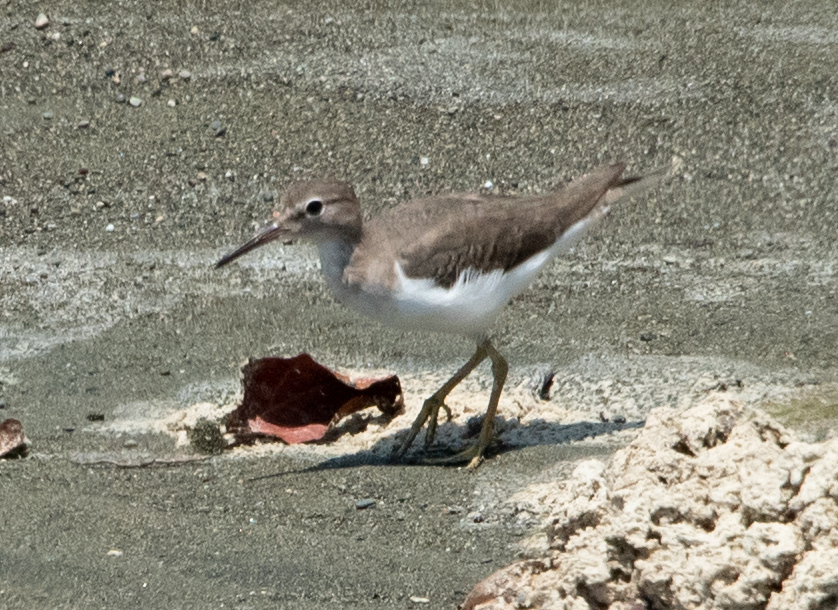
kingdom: Animalia
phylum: Chordata
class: Aves
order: Charadriiformes
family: Scolopacidae
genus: Actitis
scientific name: Actitis macularius
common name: Spotted sandpiper
